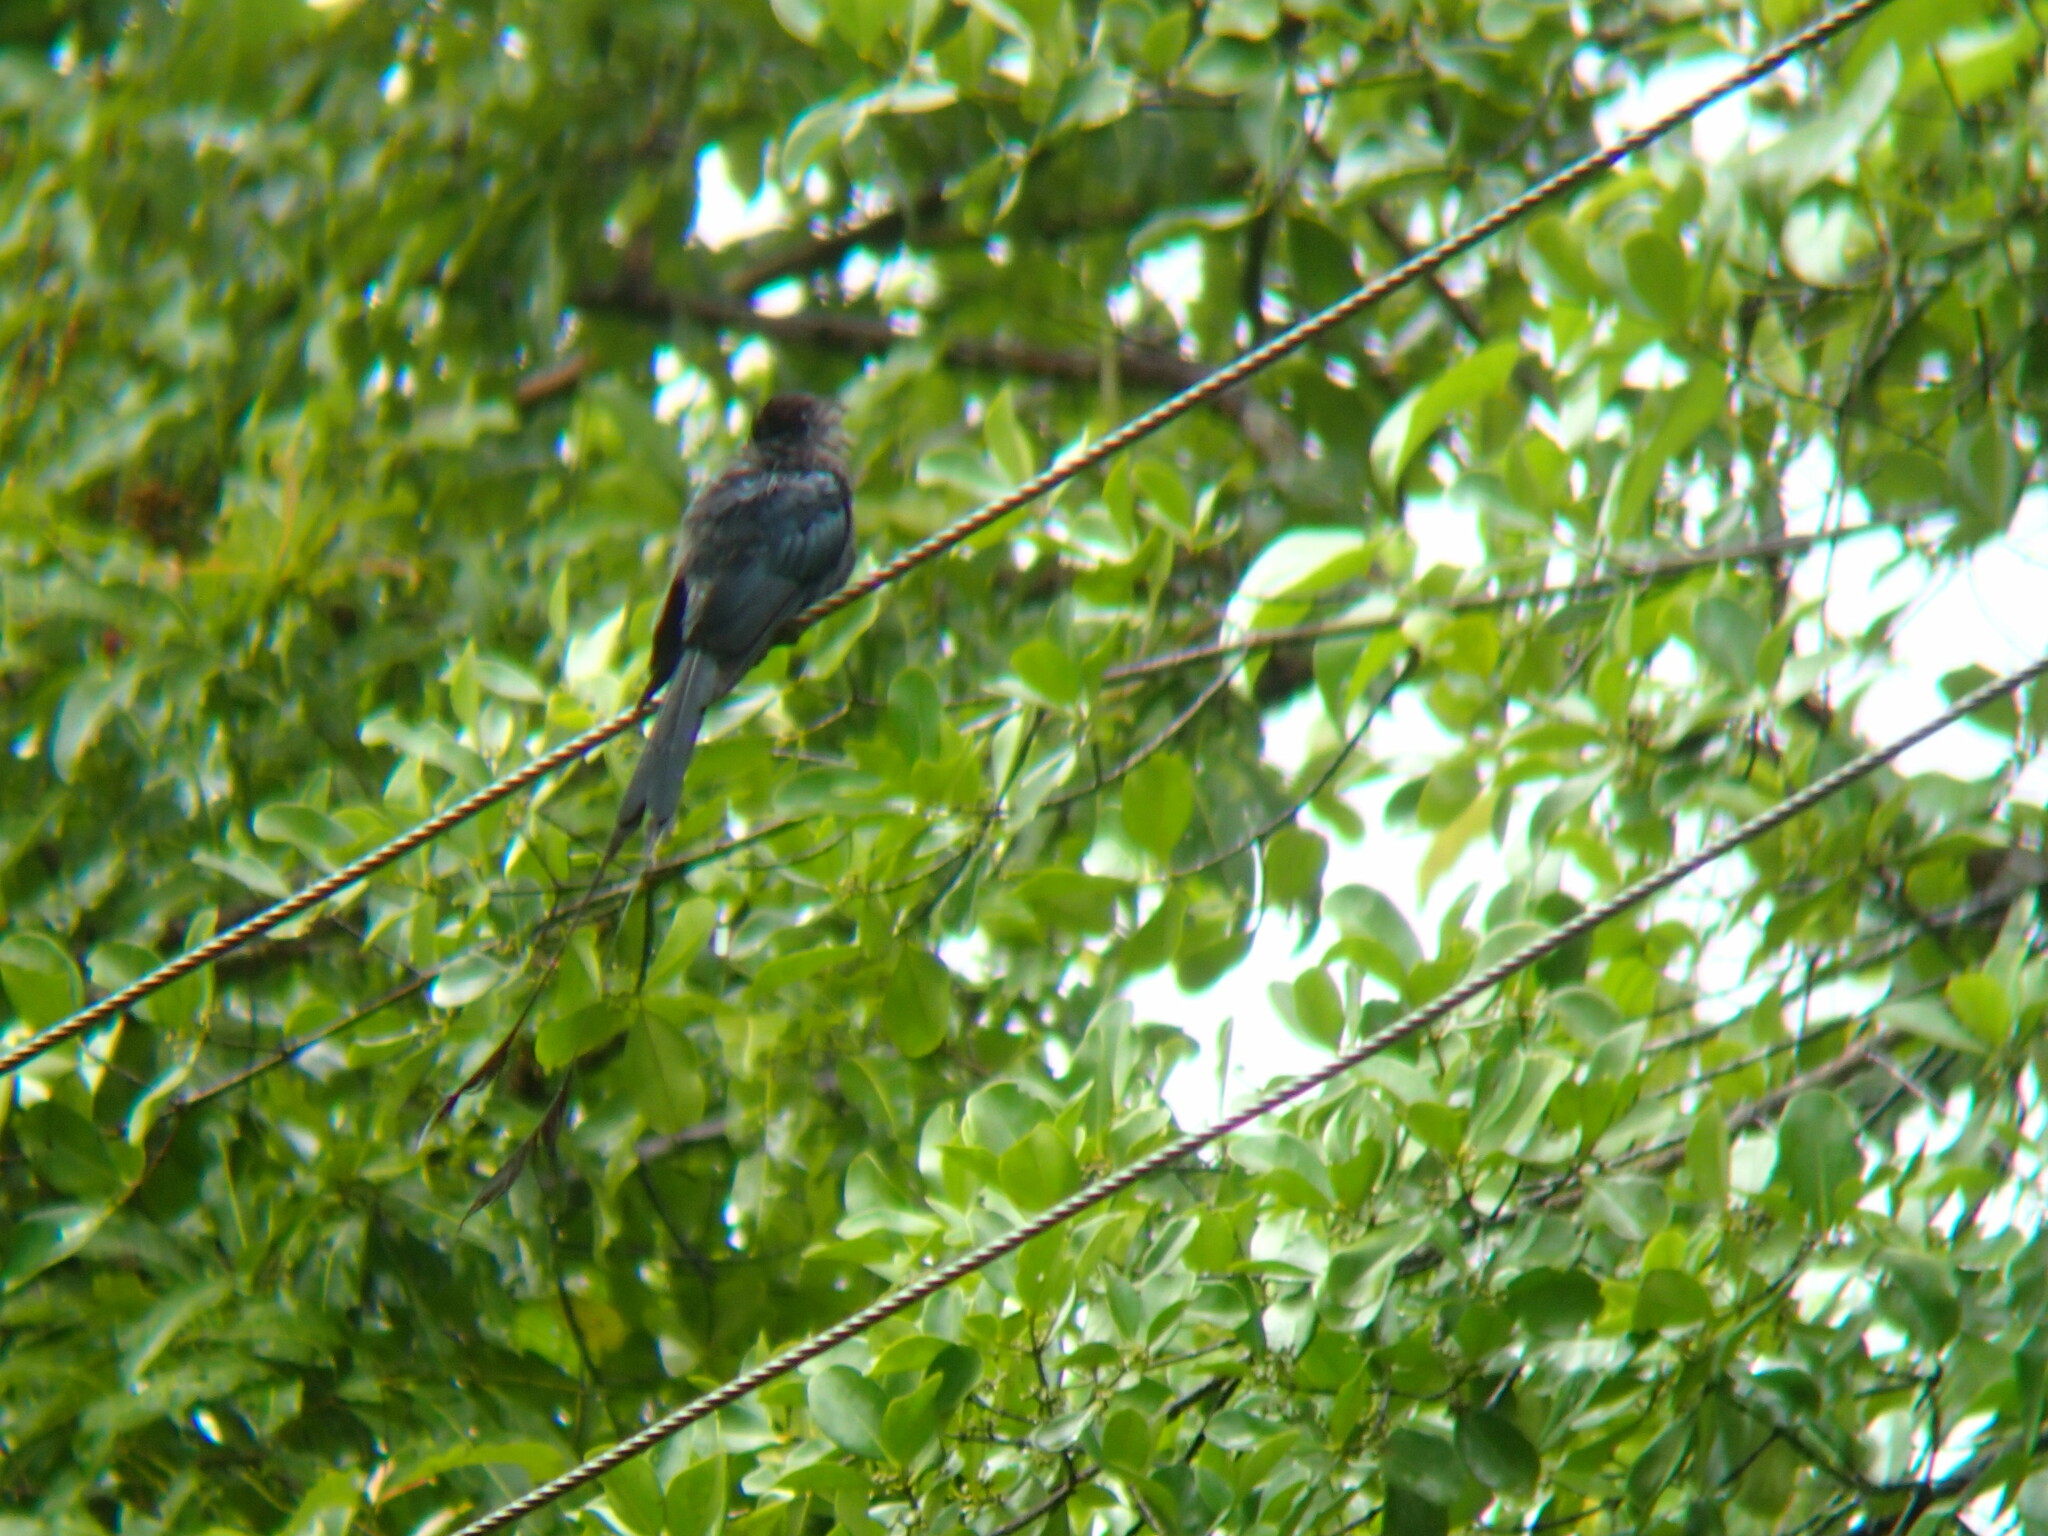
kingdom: Animalia
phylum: Chordata
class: Aves
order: Passeriformes
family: Dicruridae
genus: Dicrurus
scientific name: Dicrurus paradiseus
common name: Greater racket-tailed drongo
